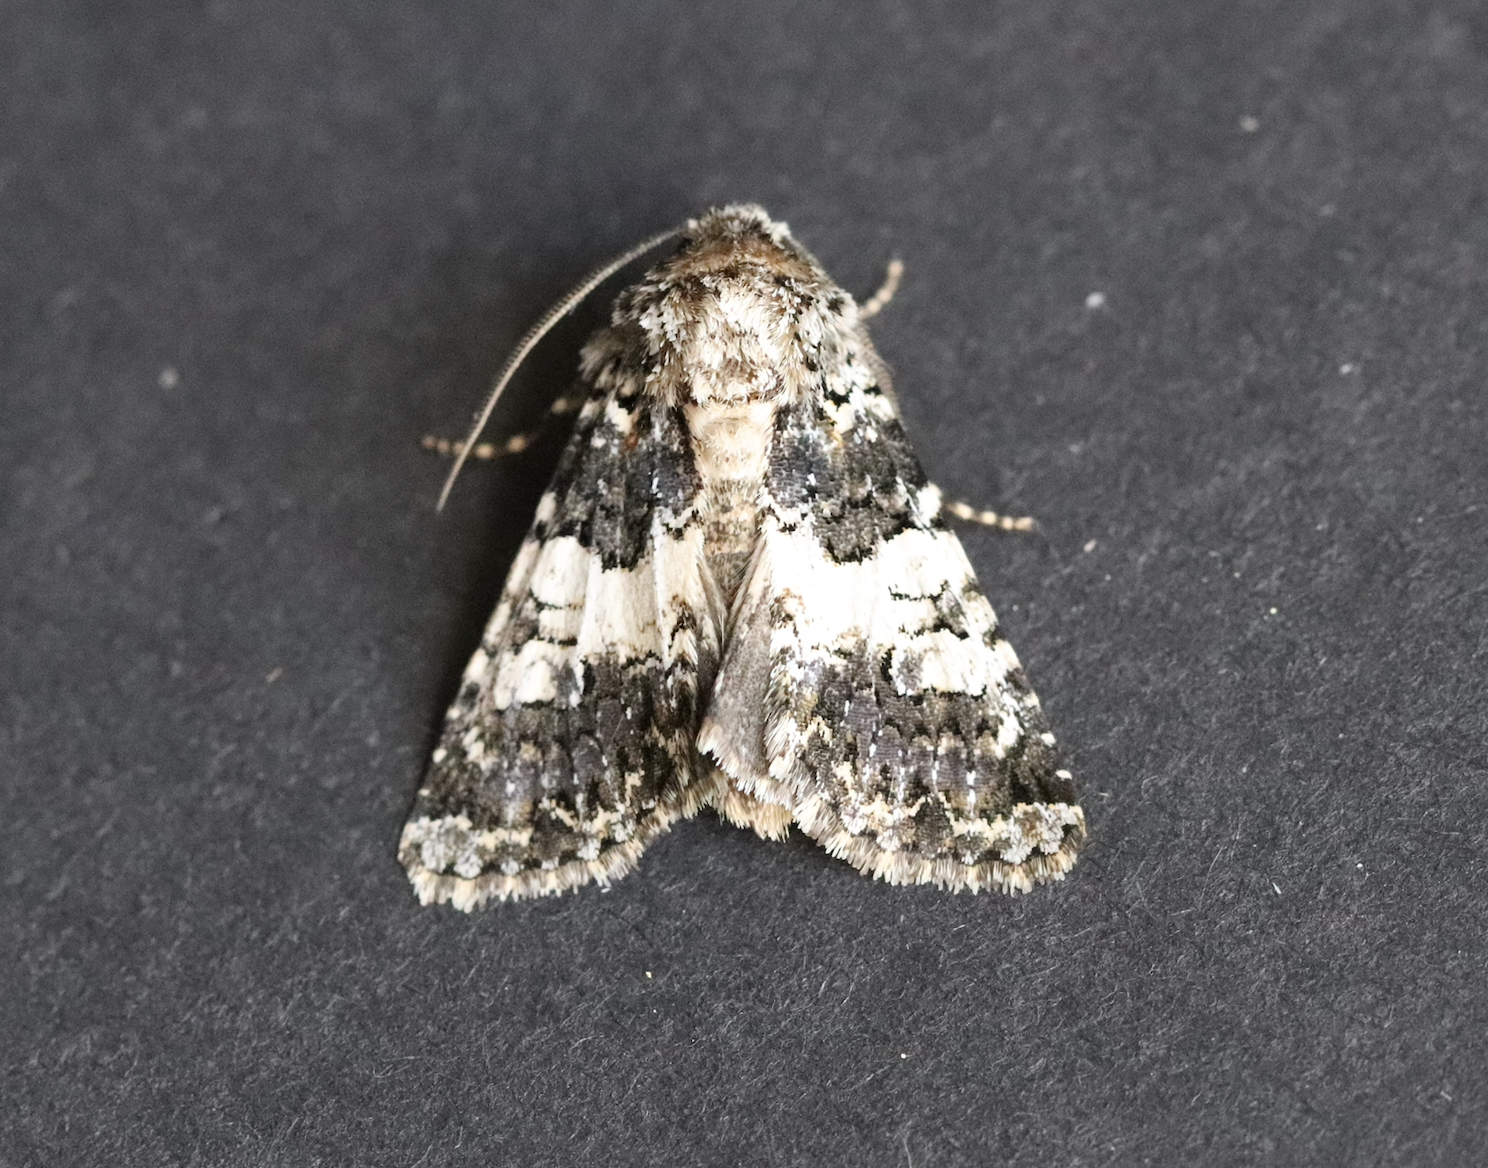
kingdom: Animalia
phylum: Arthropoda
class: Insecta
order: Lepidoptera
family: Noctuidae
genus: Hadena
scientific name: Hadena compta
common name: Varied coronet
